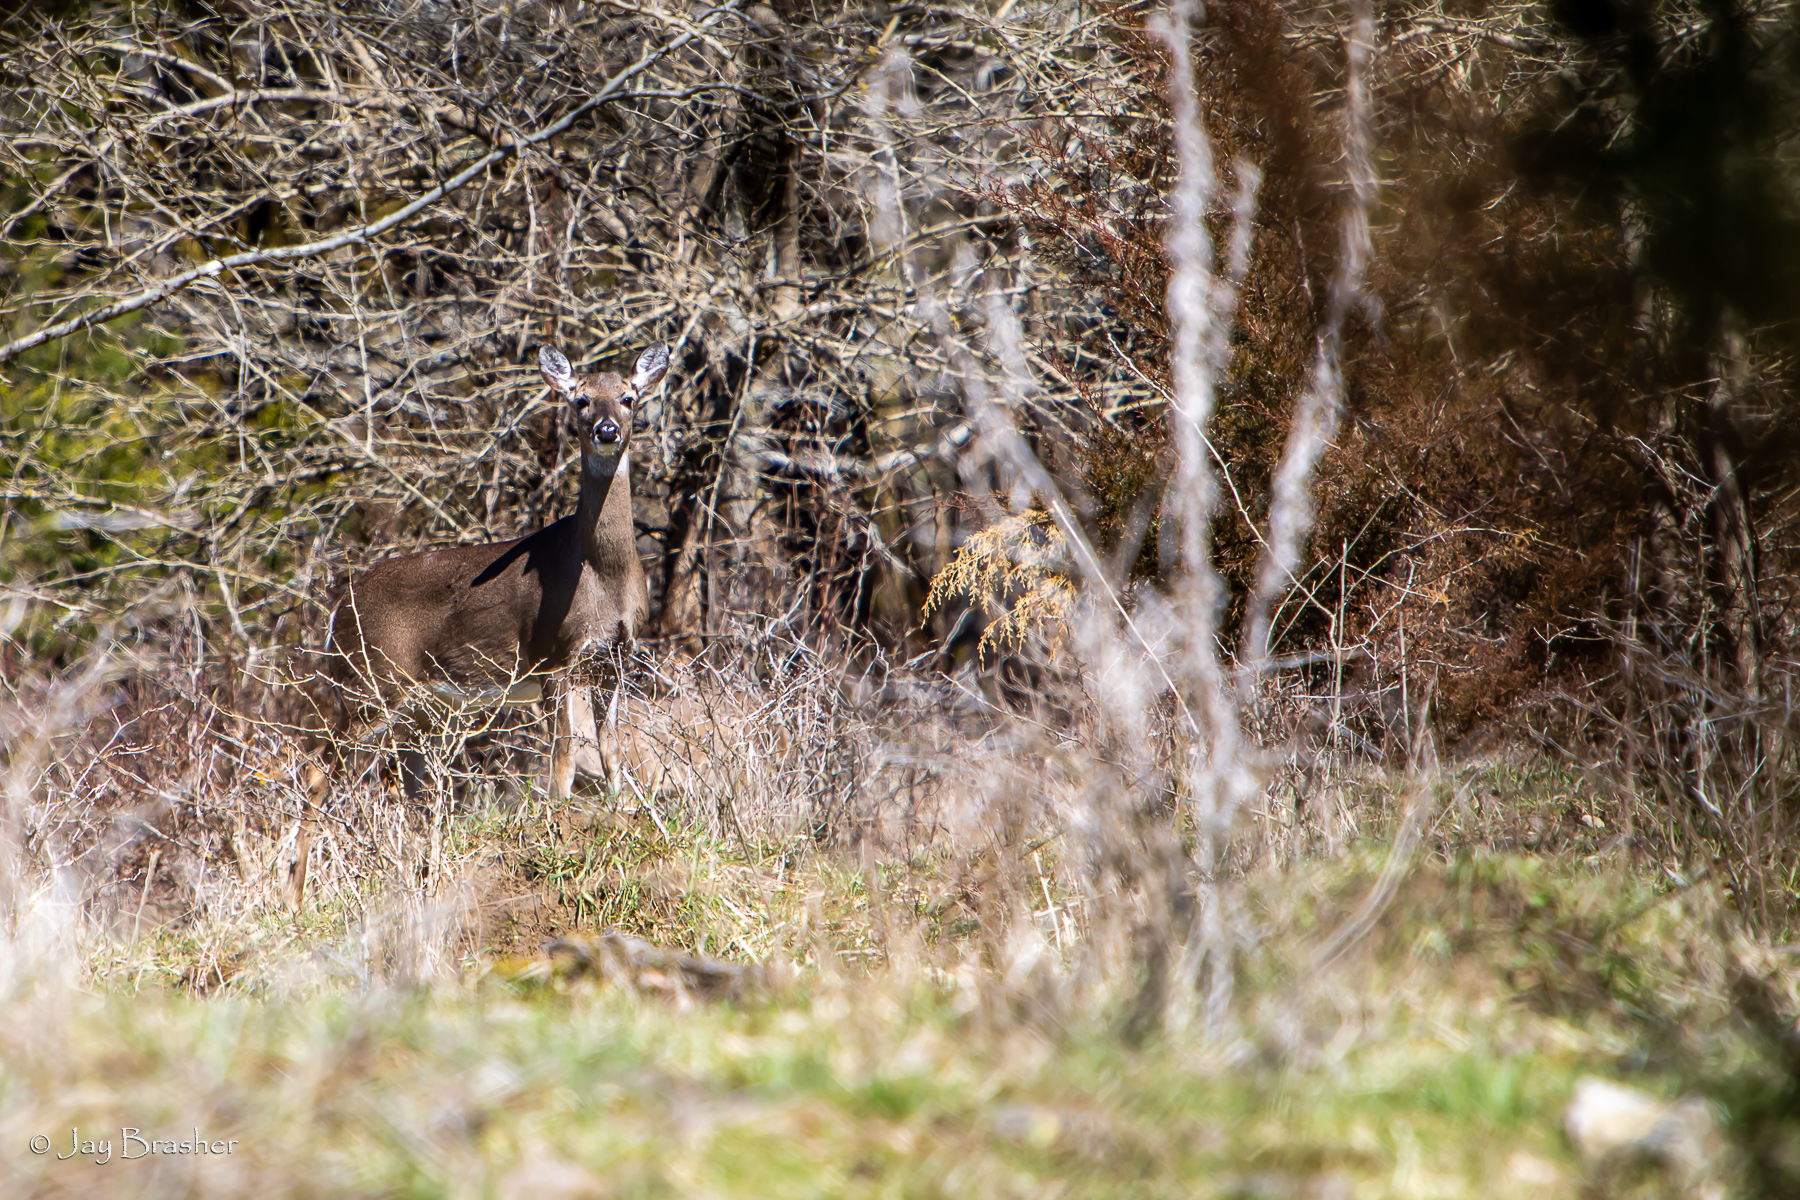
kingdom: Animalia
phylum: Chordata
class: Mammalia
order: Artiodactyla
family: Cervidae
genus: Odocoileus
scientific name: Odocoileus virginianus
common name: White-tailed deer
